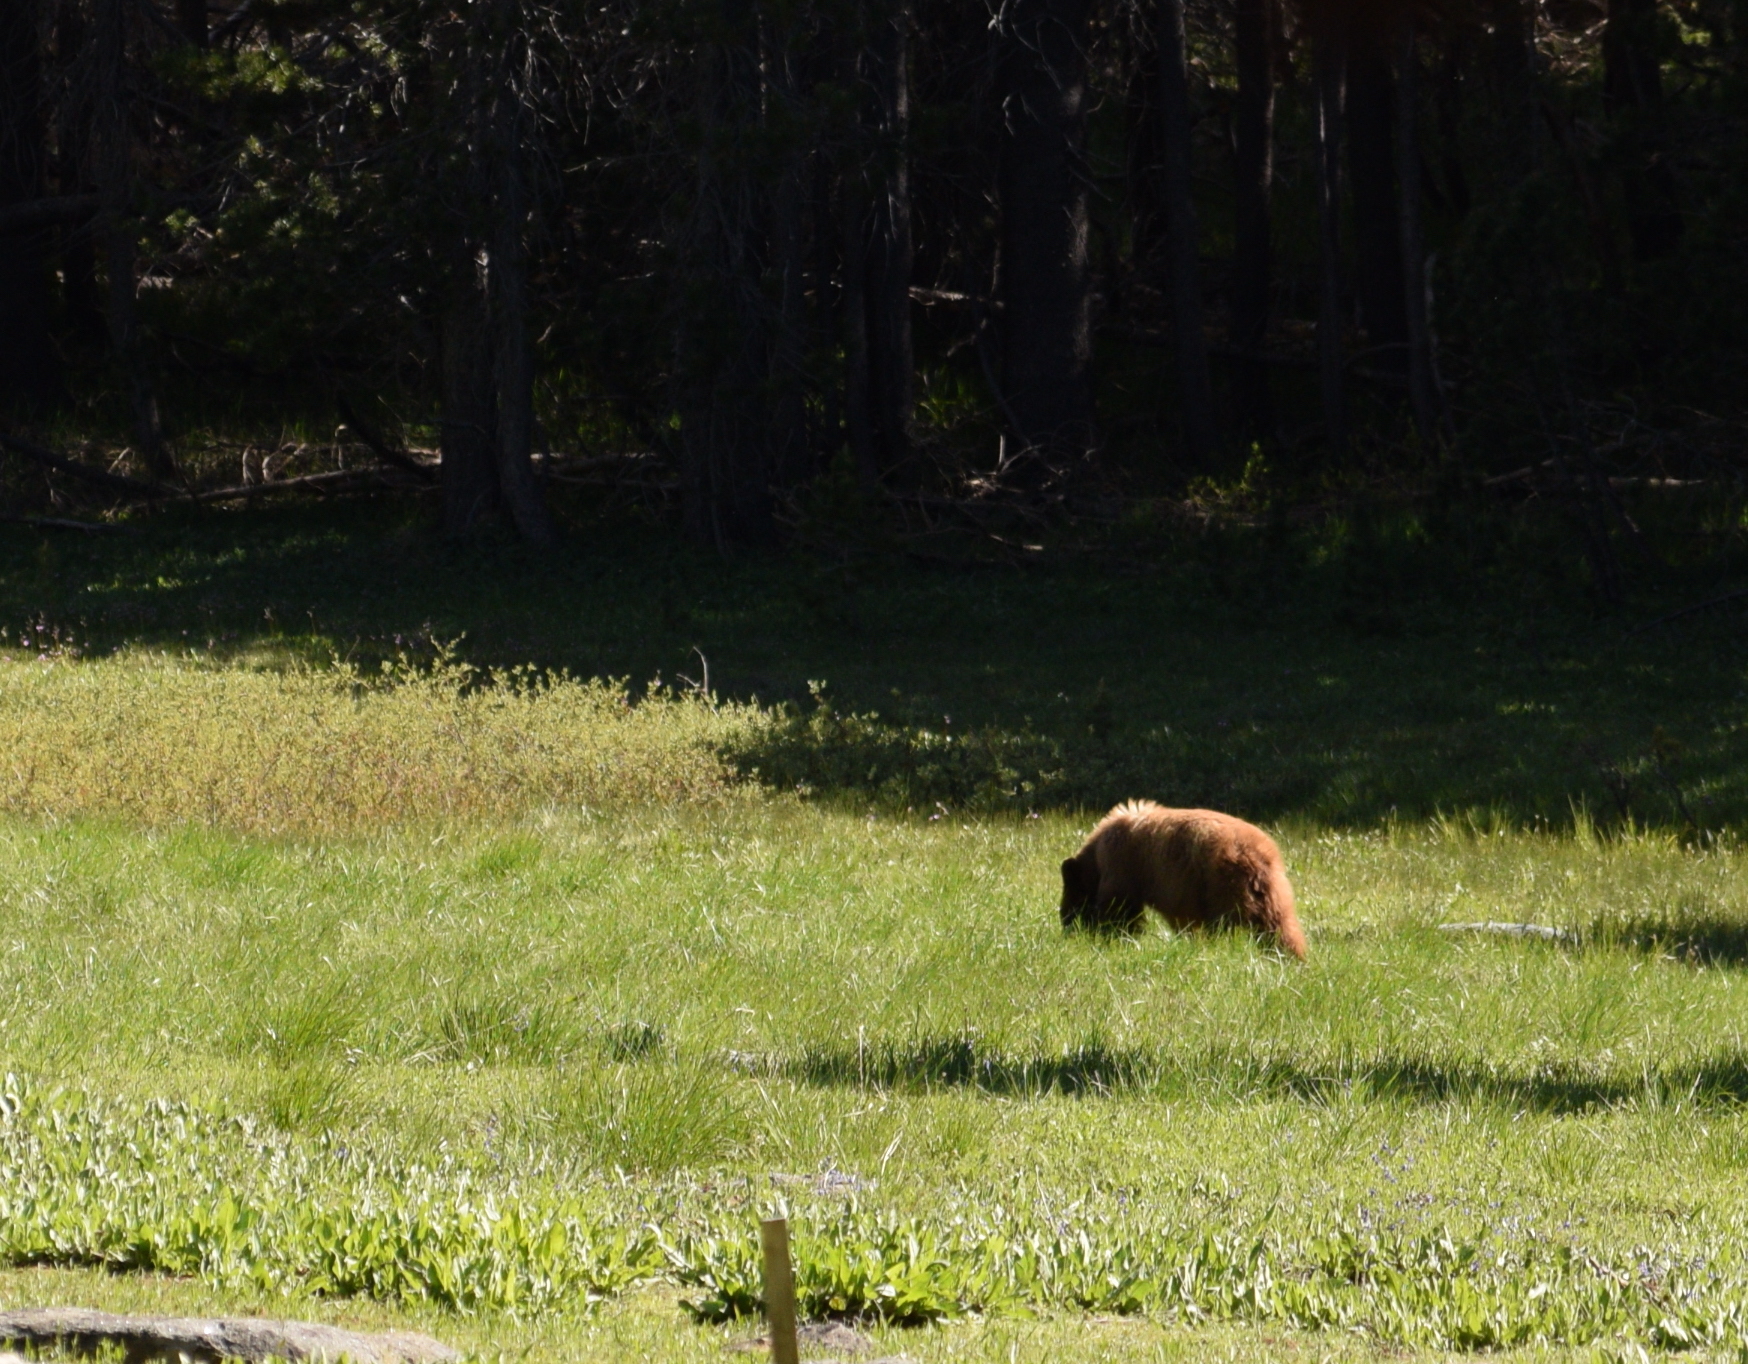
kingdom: Animalia
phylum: Chordata
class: Mammalia
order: Carnivora
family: Ursidae
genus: Ursus
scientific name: Ursus americanus
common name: American black bear
